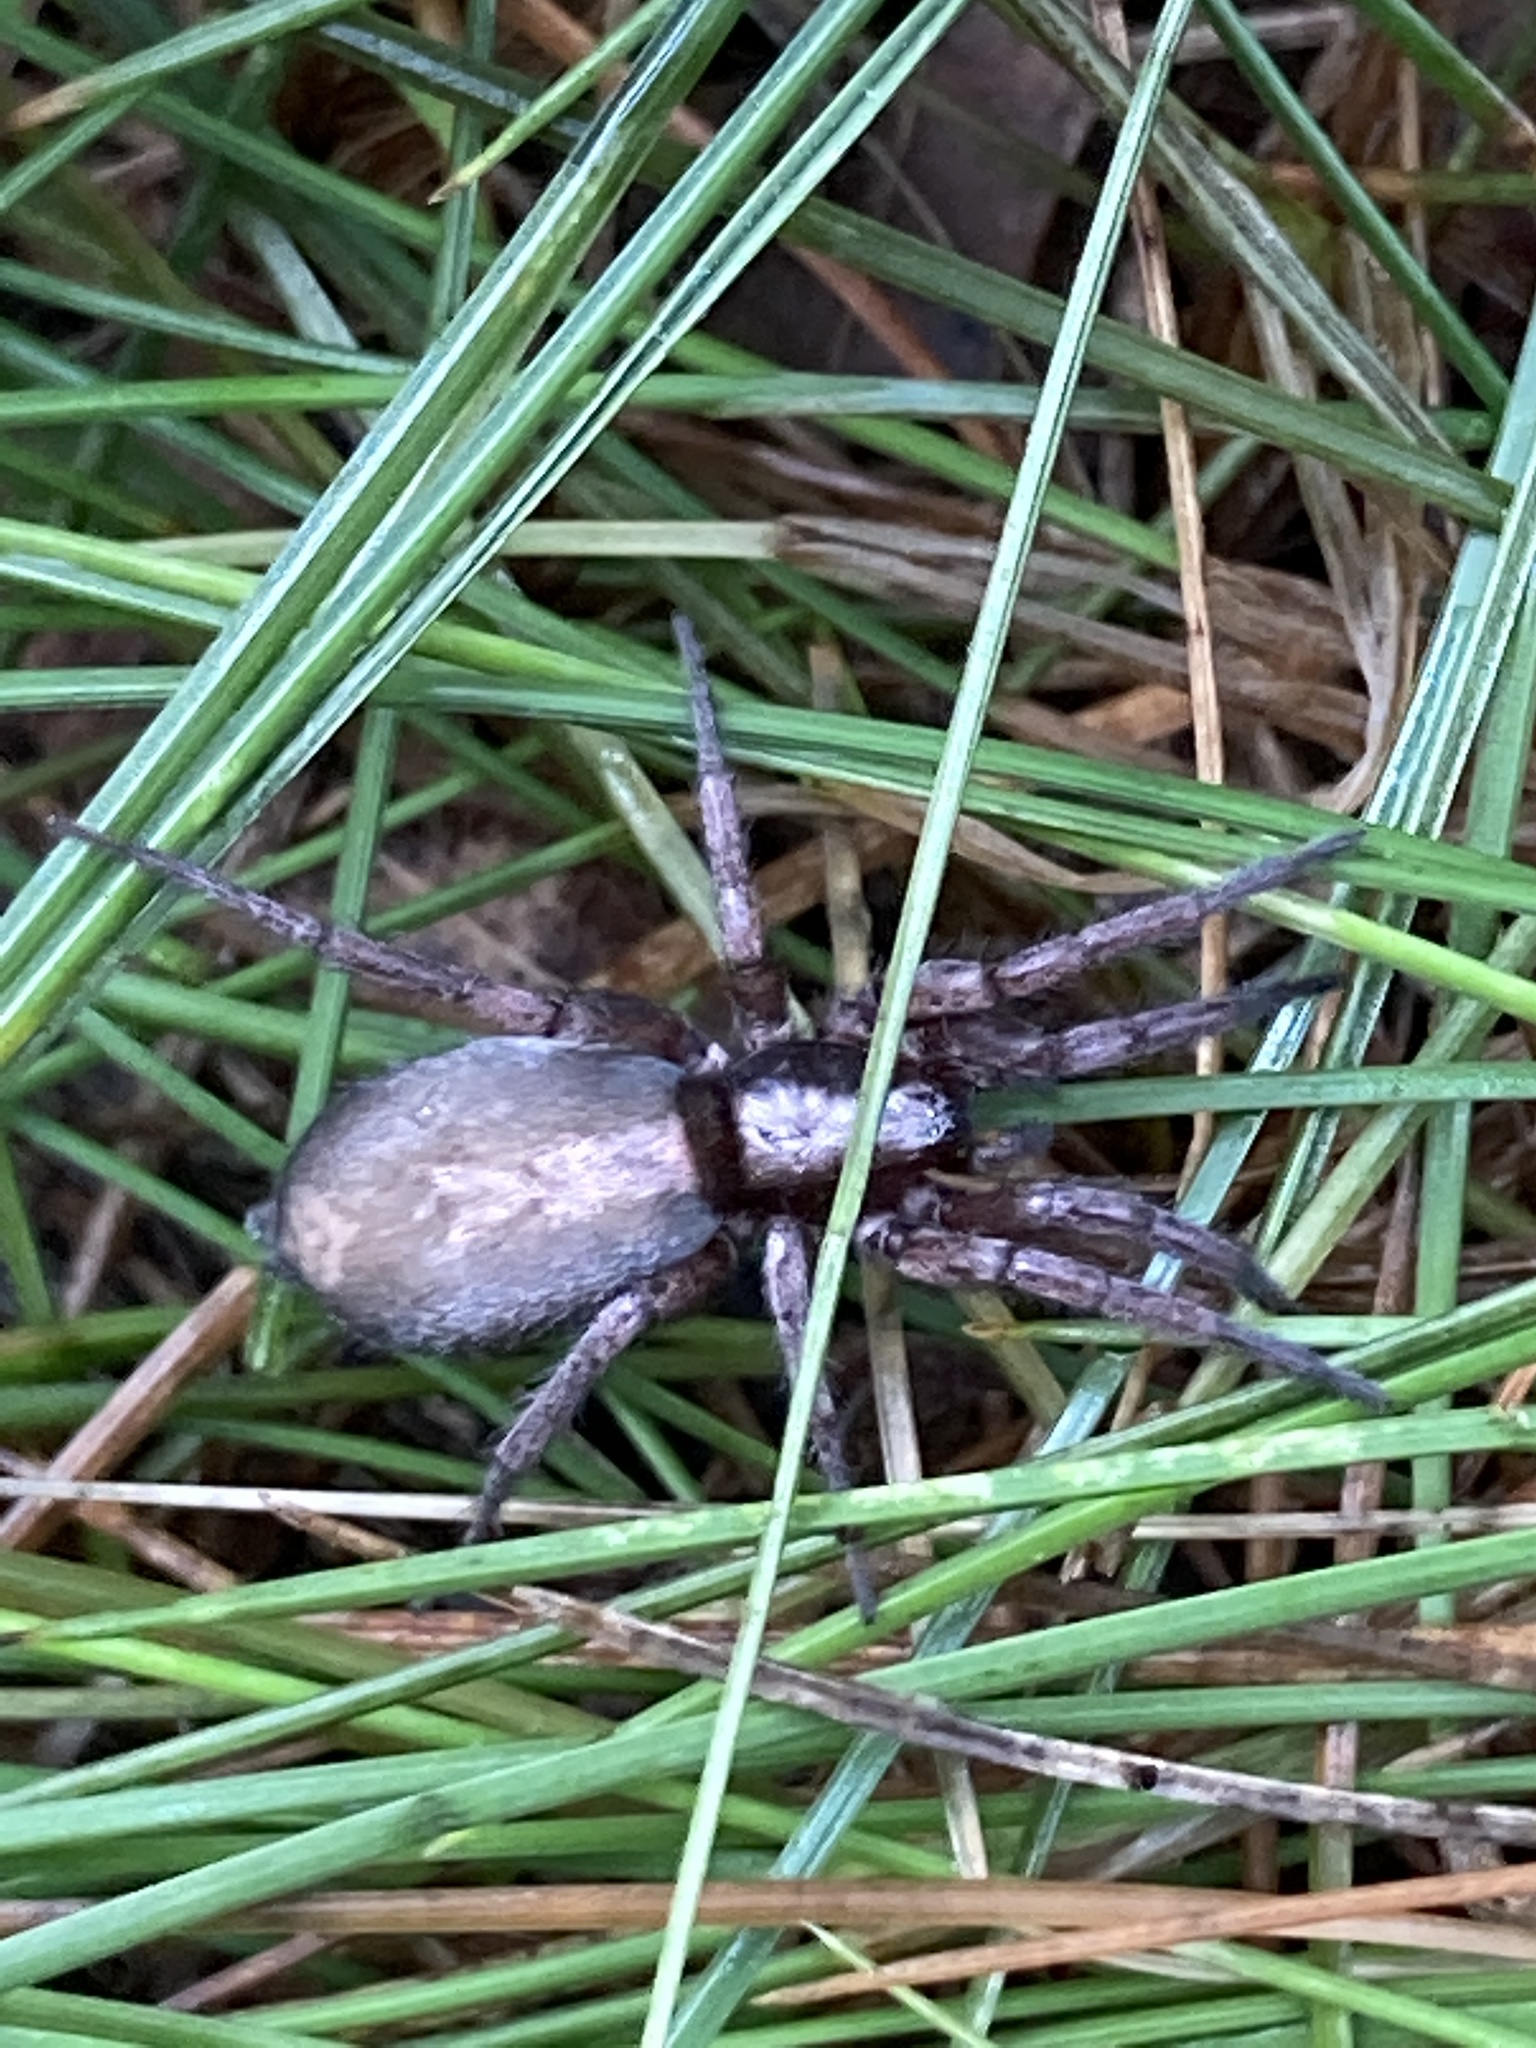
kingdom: Animalia
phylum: Arthropoda
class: Arachnida
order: Araneae
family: Gnaphosidae
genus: Herpyllus
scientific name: Herpyllus ecclesiasticus
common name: Eastern parson spider
